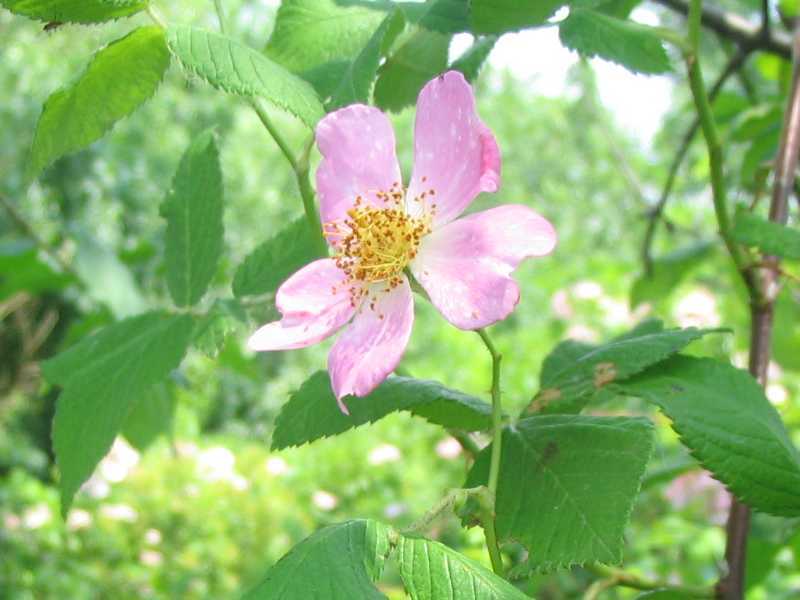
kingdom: Plantae
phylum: Tracheophyta
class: Magnoliopsida
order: Rosales
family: Rosaceae
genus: Rosa
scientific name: Rosa setigera
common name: Prairie rose
